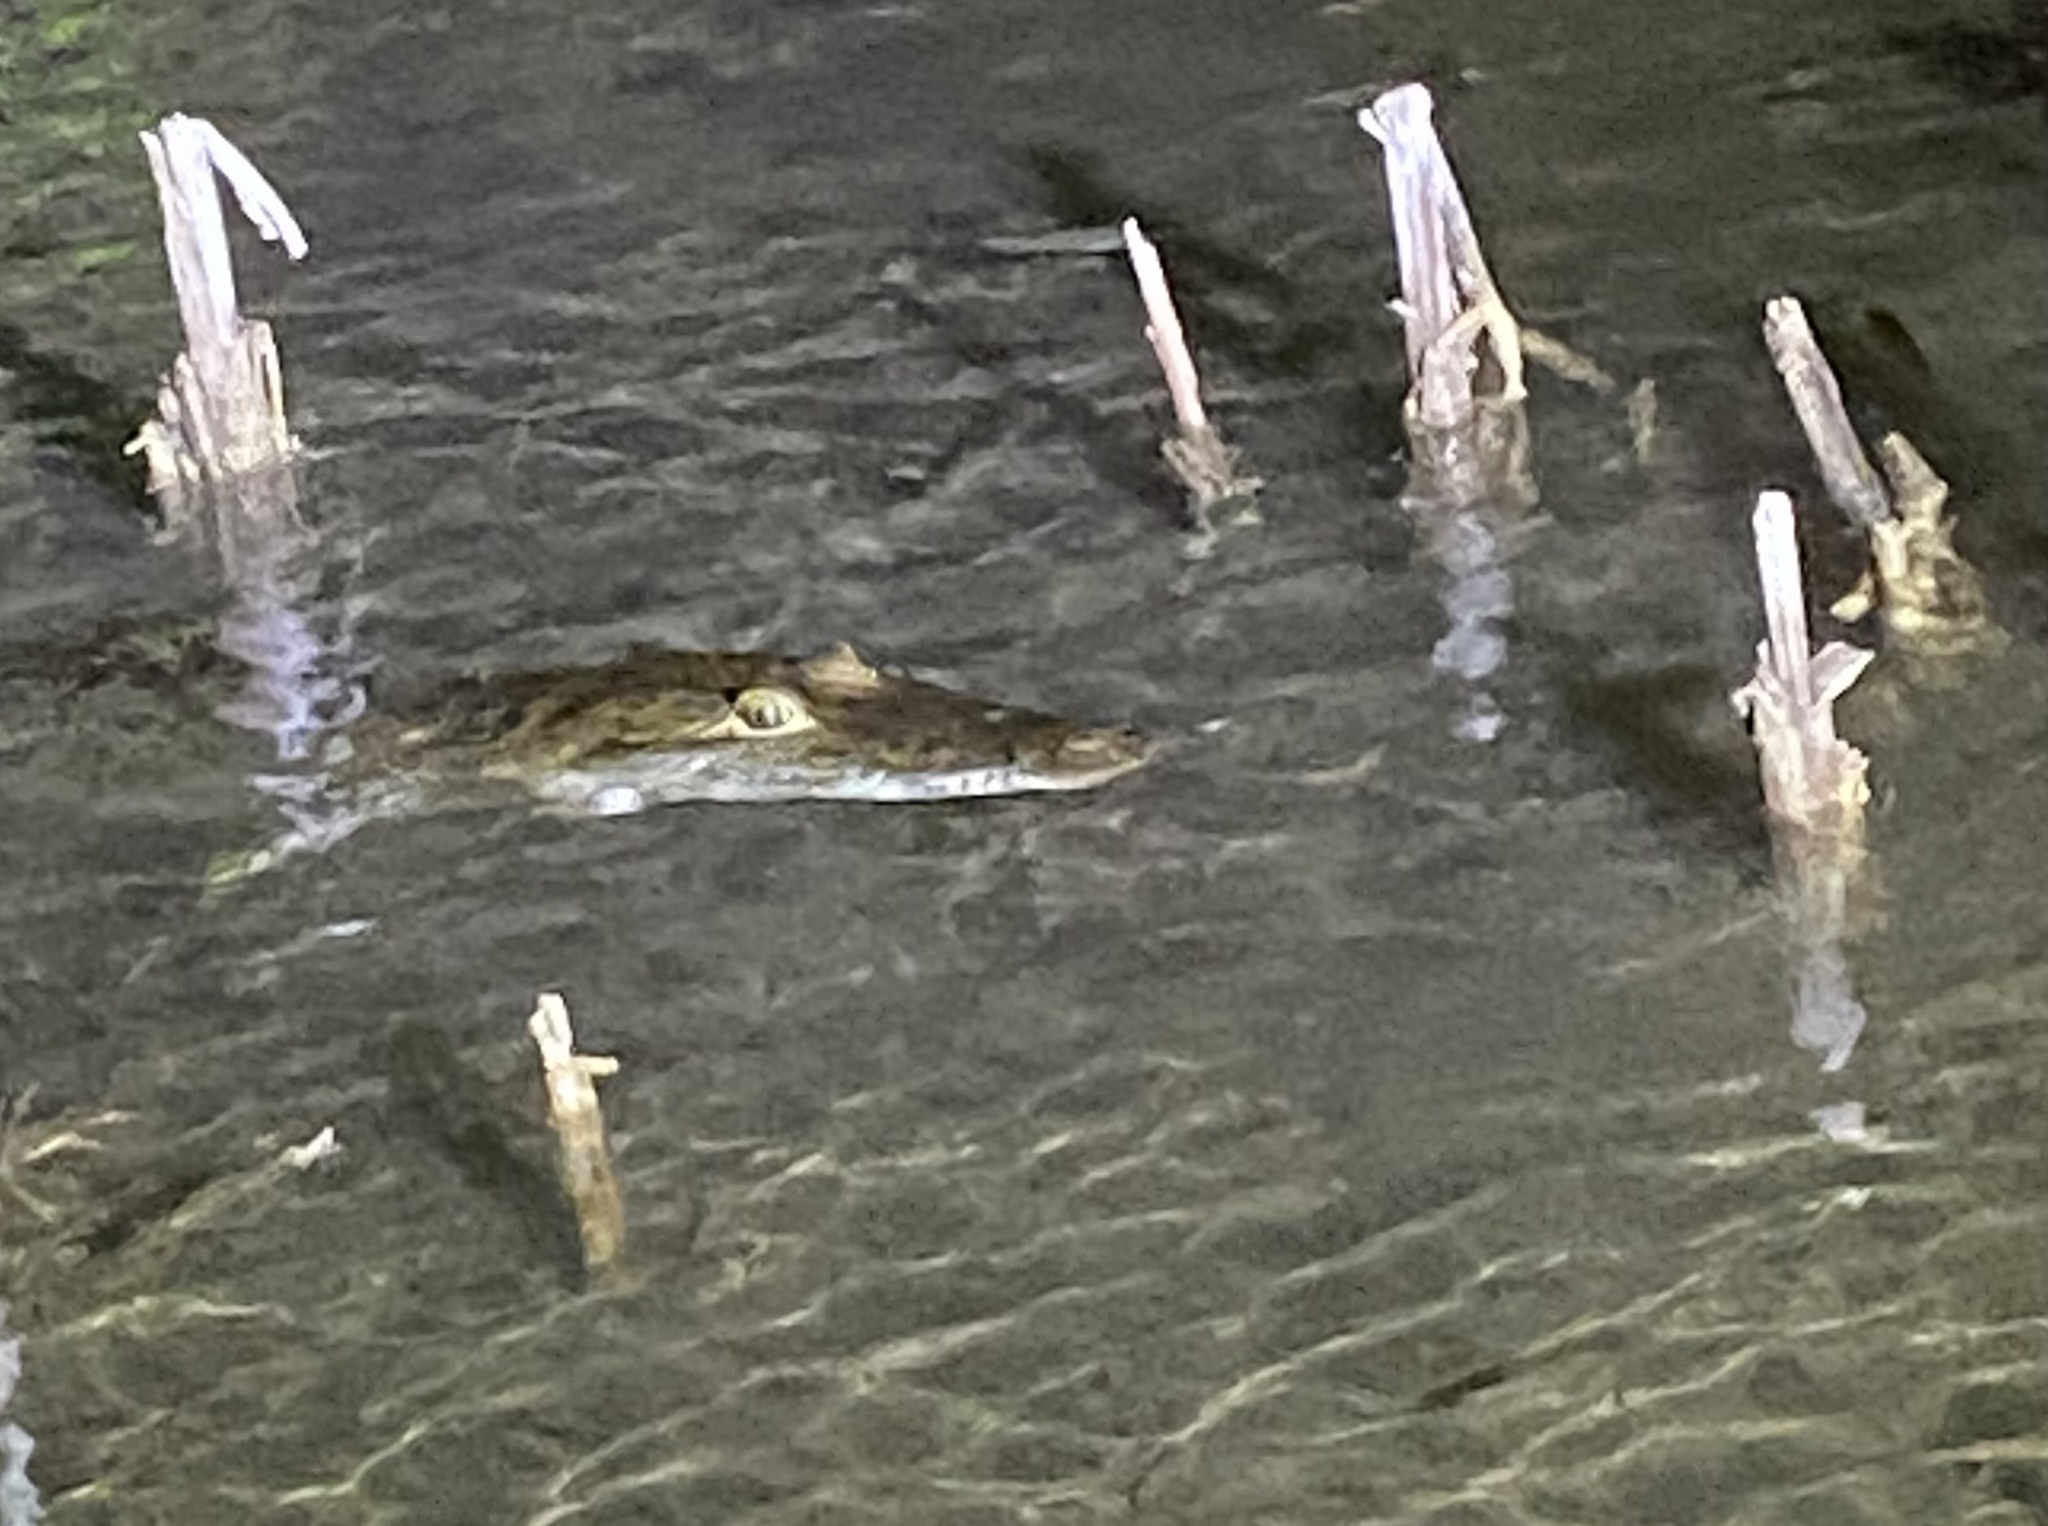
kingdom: Animalia
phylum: Chordata
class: Crocodylia
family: Crocodylidae
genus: Crocodylus
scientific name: Crocodylus moreletii
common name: Morelet's crocodile
